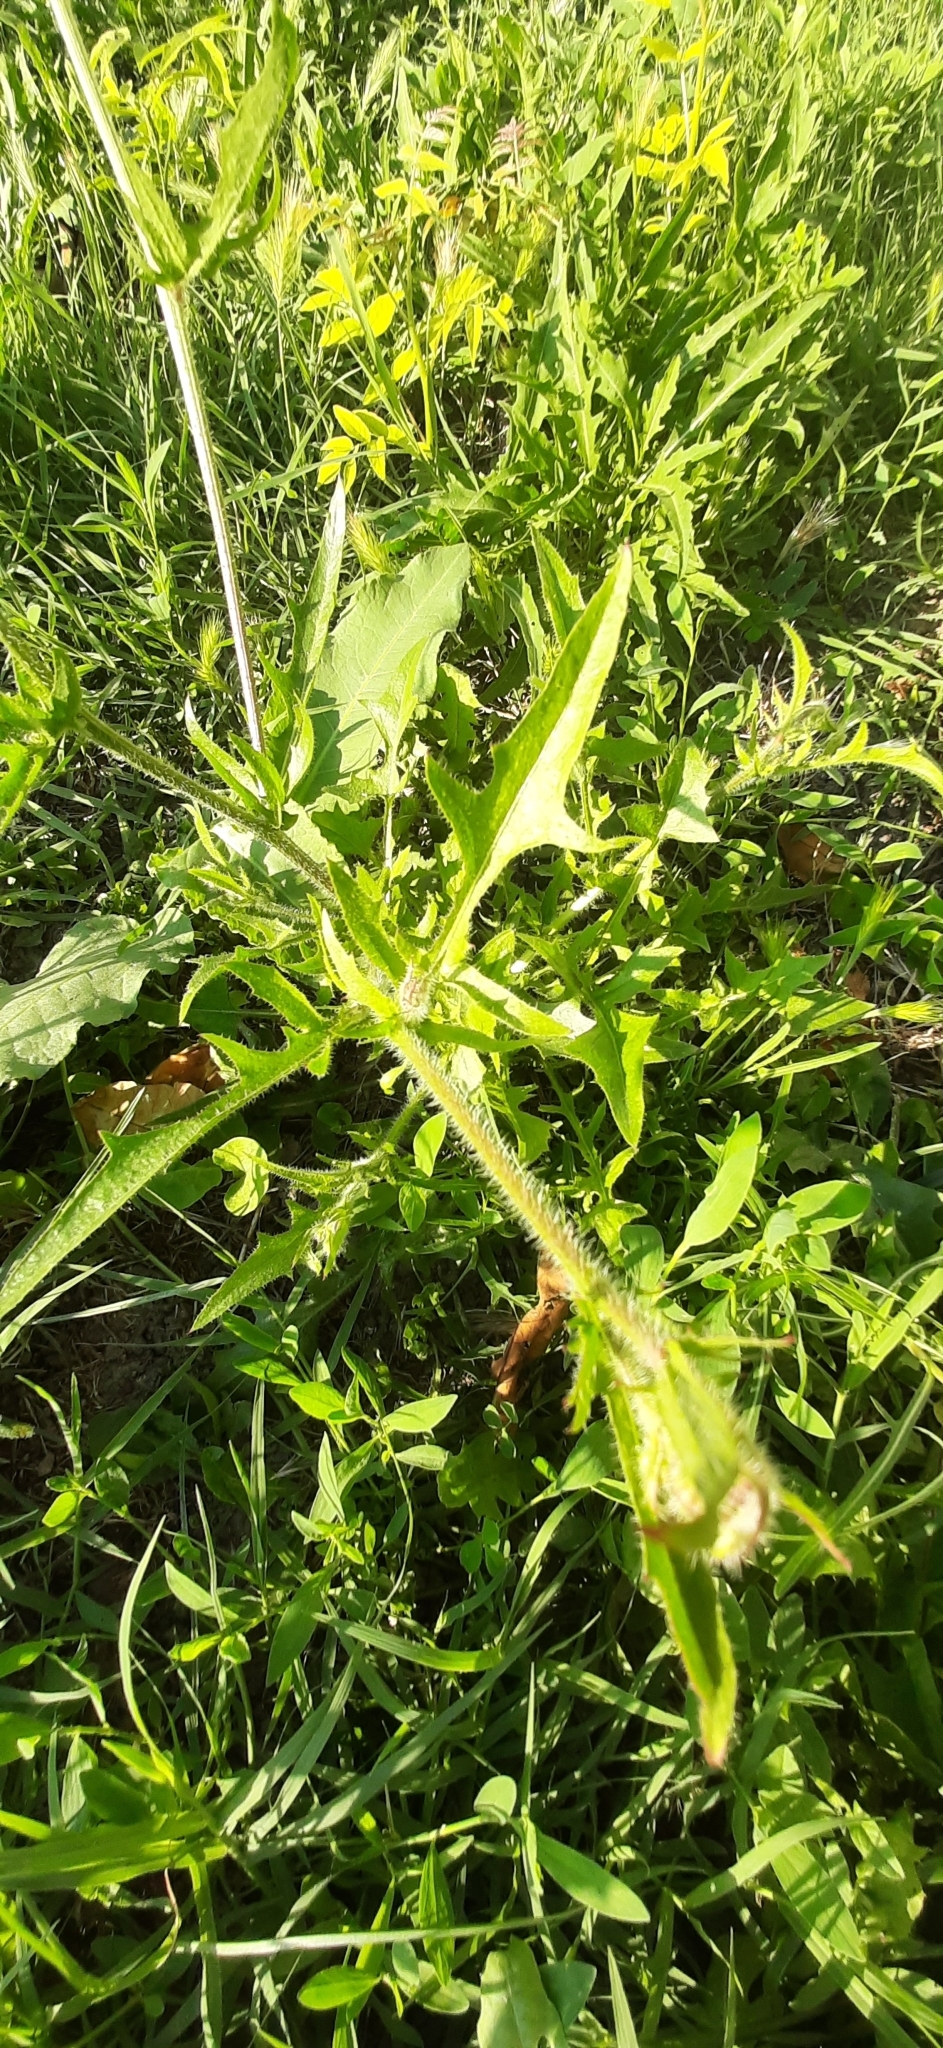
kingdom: Plantae
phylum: Tracheophyta
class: Magnoliopsida
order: Asterales
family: Asteraceae
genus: Crepis
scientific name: Crepis foetida
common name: Stinking hawk's-beard
